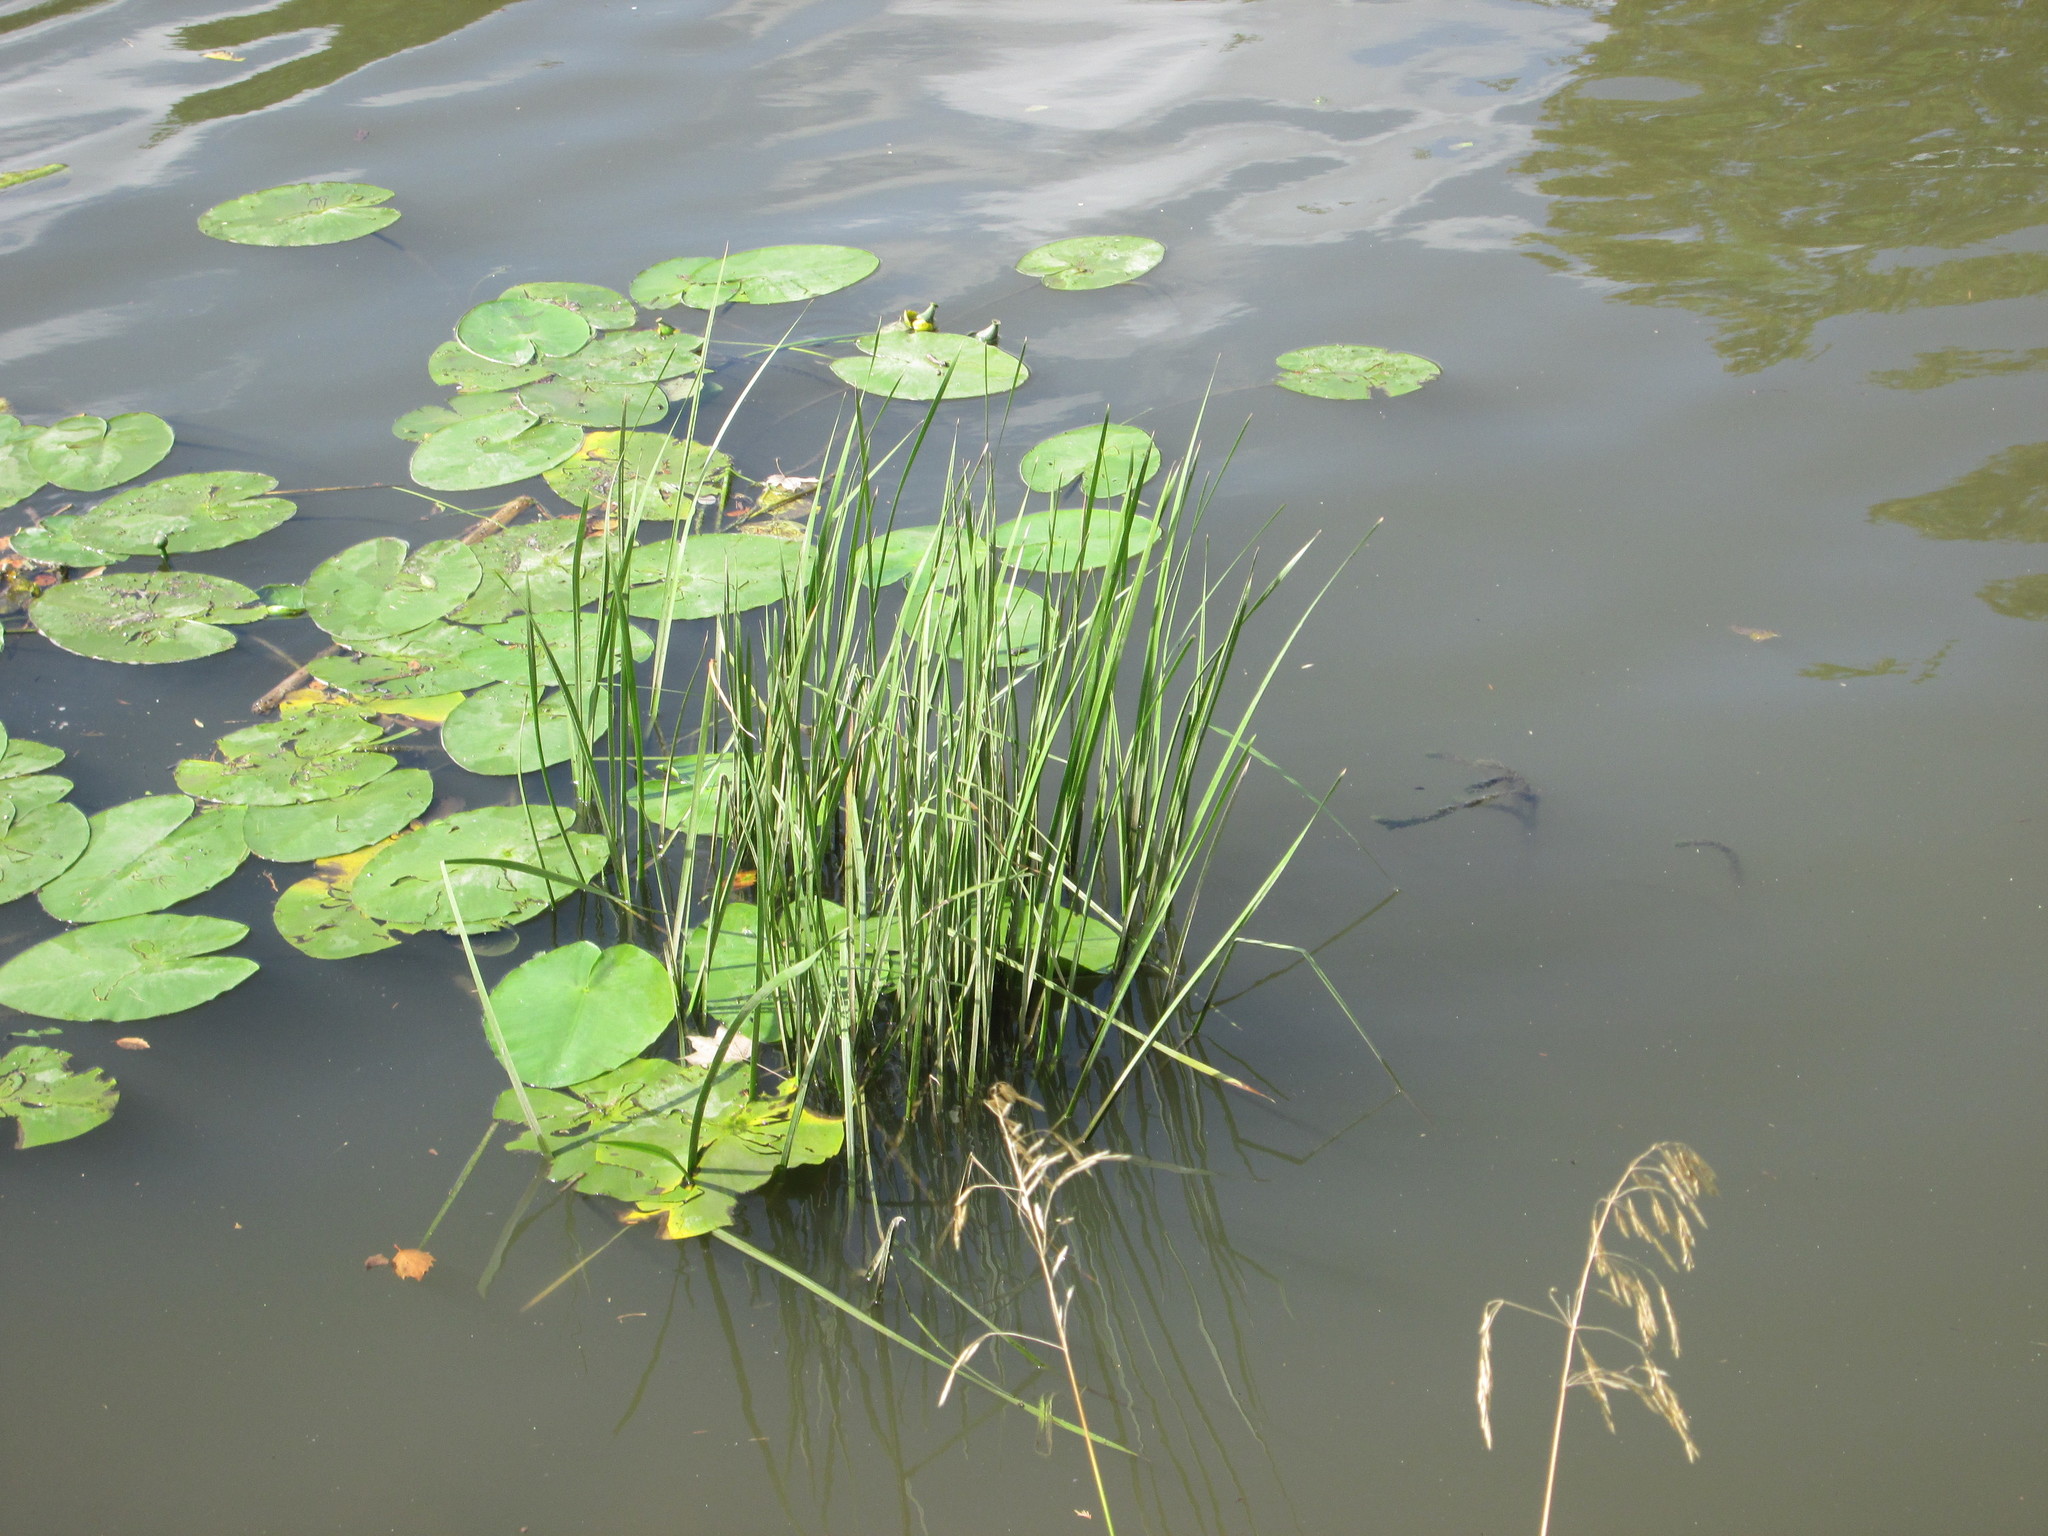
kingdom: Plantae
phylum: Tracheophyta
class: Liliopsida
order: Alismatales
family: Butomaceae
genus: Butomus
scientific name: Butomus umbellatus
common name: Flowering-rush
